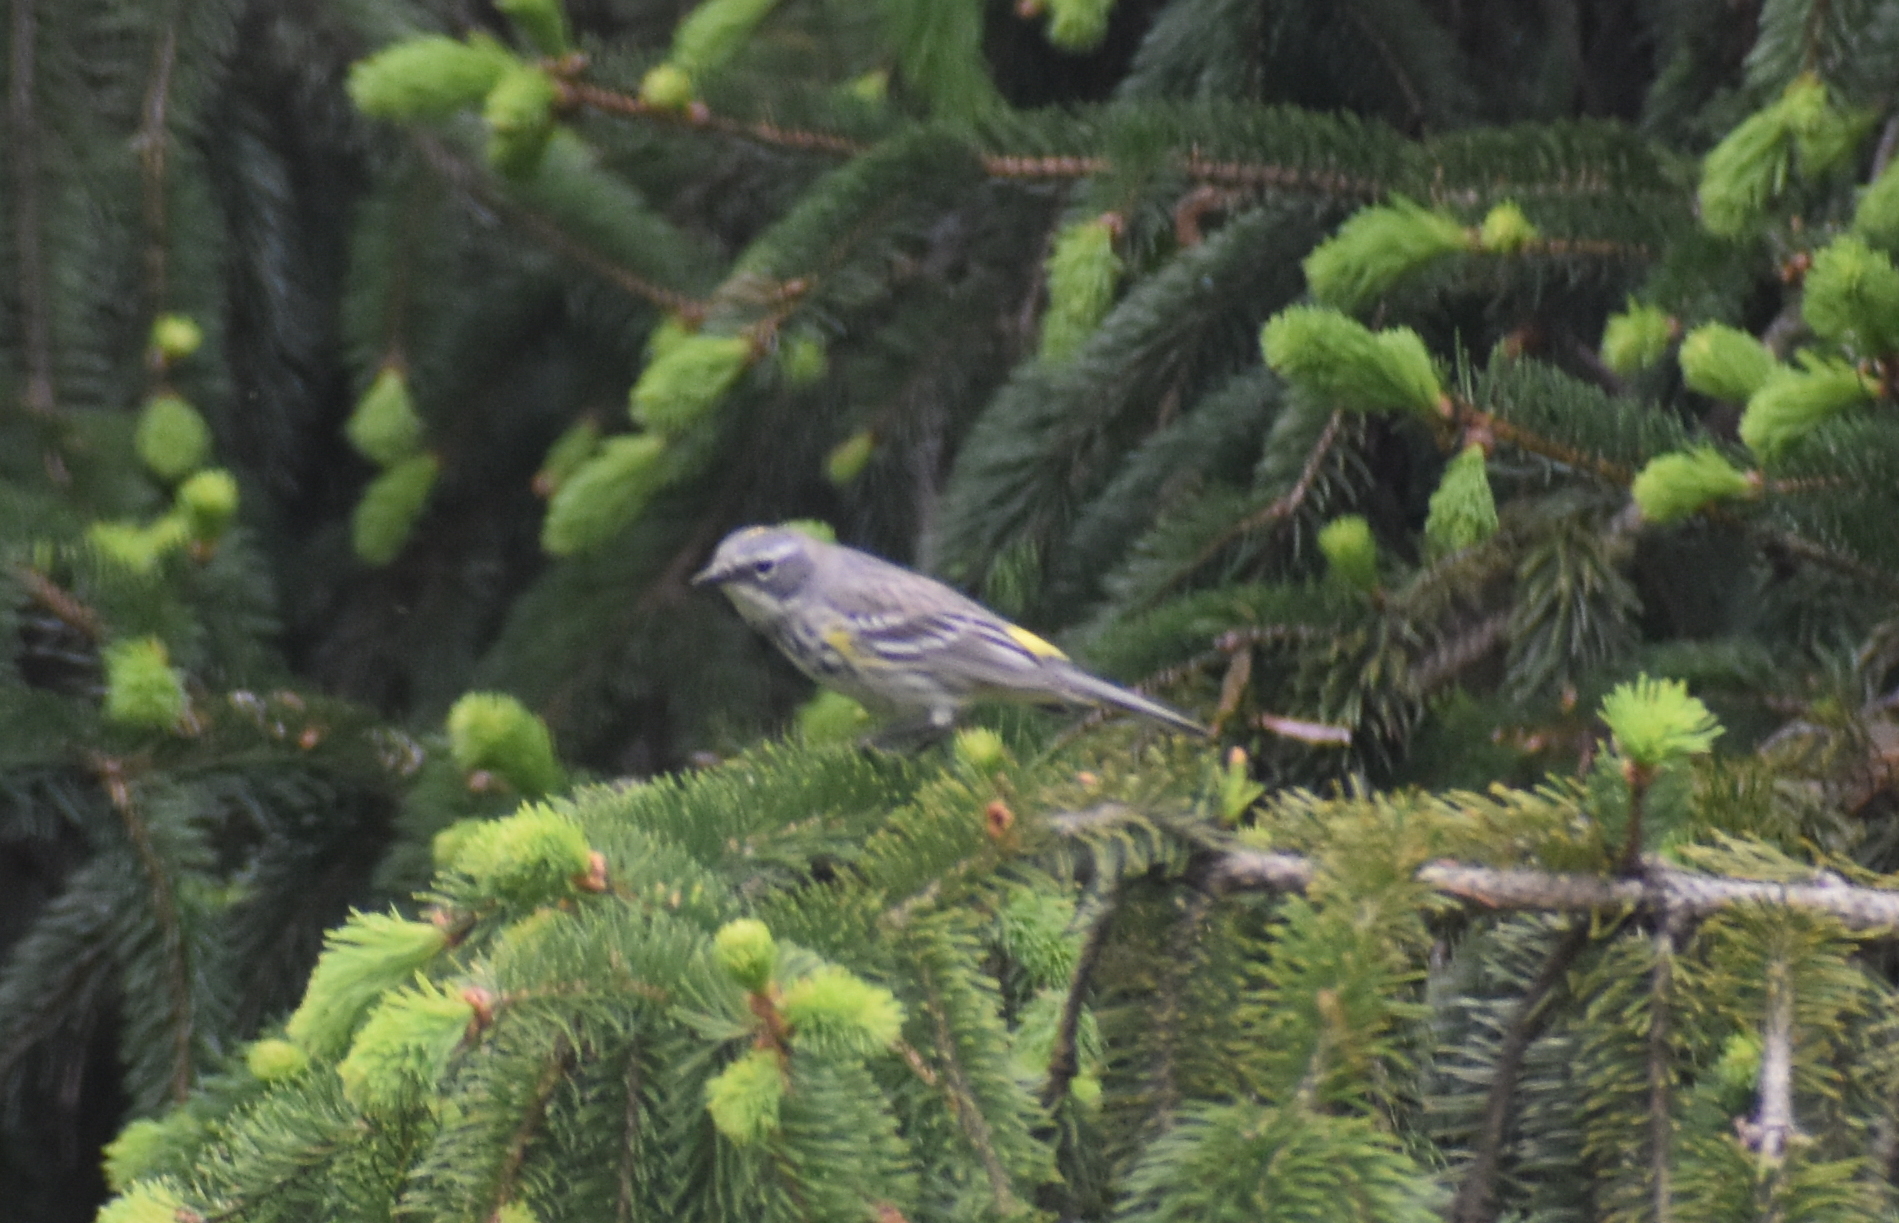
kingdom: Animalia
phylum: Chordata
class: Aves
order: Passeriformes
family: Parulidae
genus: Setophaga
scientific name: Setophaga coronata
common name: Myrtle warbler
